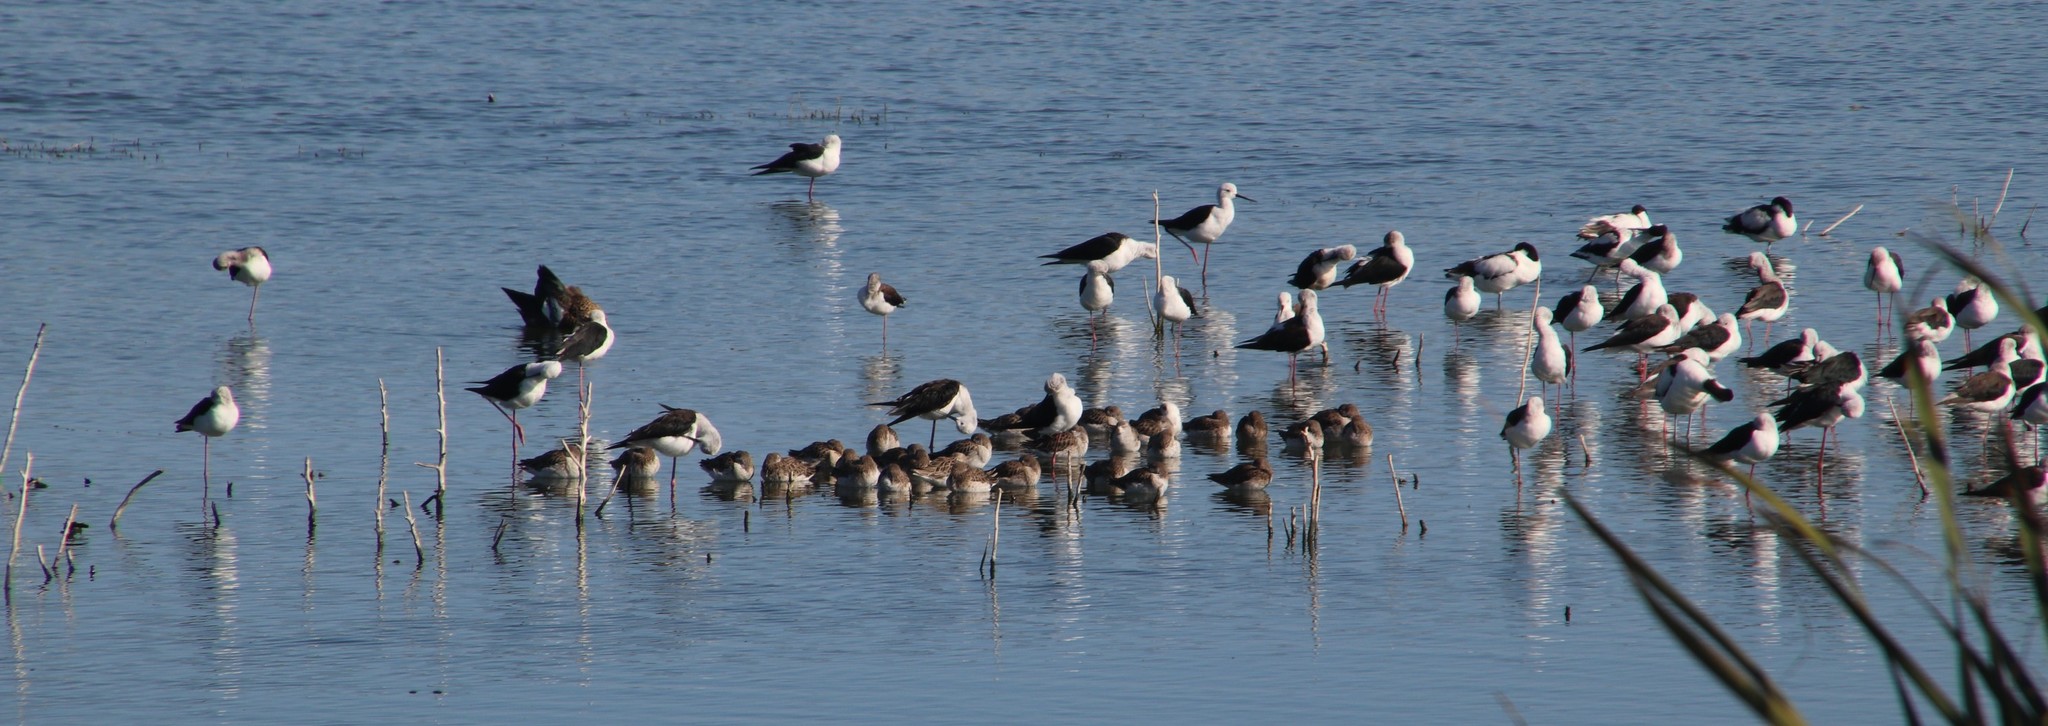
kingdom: Animalia
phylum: Chordata
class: Aves
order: Charadriiformes
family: Recurvirostridae
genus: Himantopus
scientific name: Himantopus himantopus
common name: Black-winged stilt
